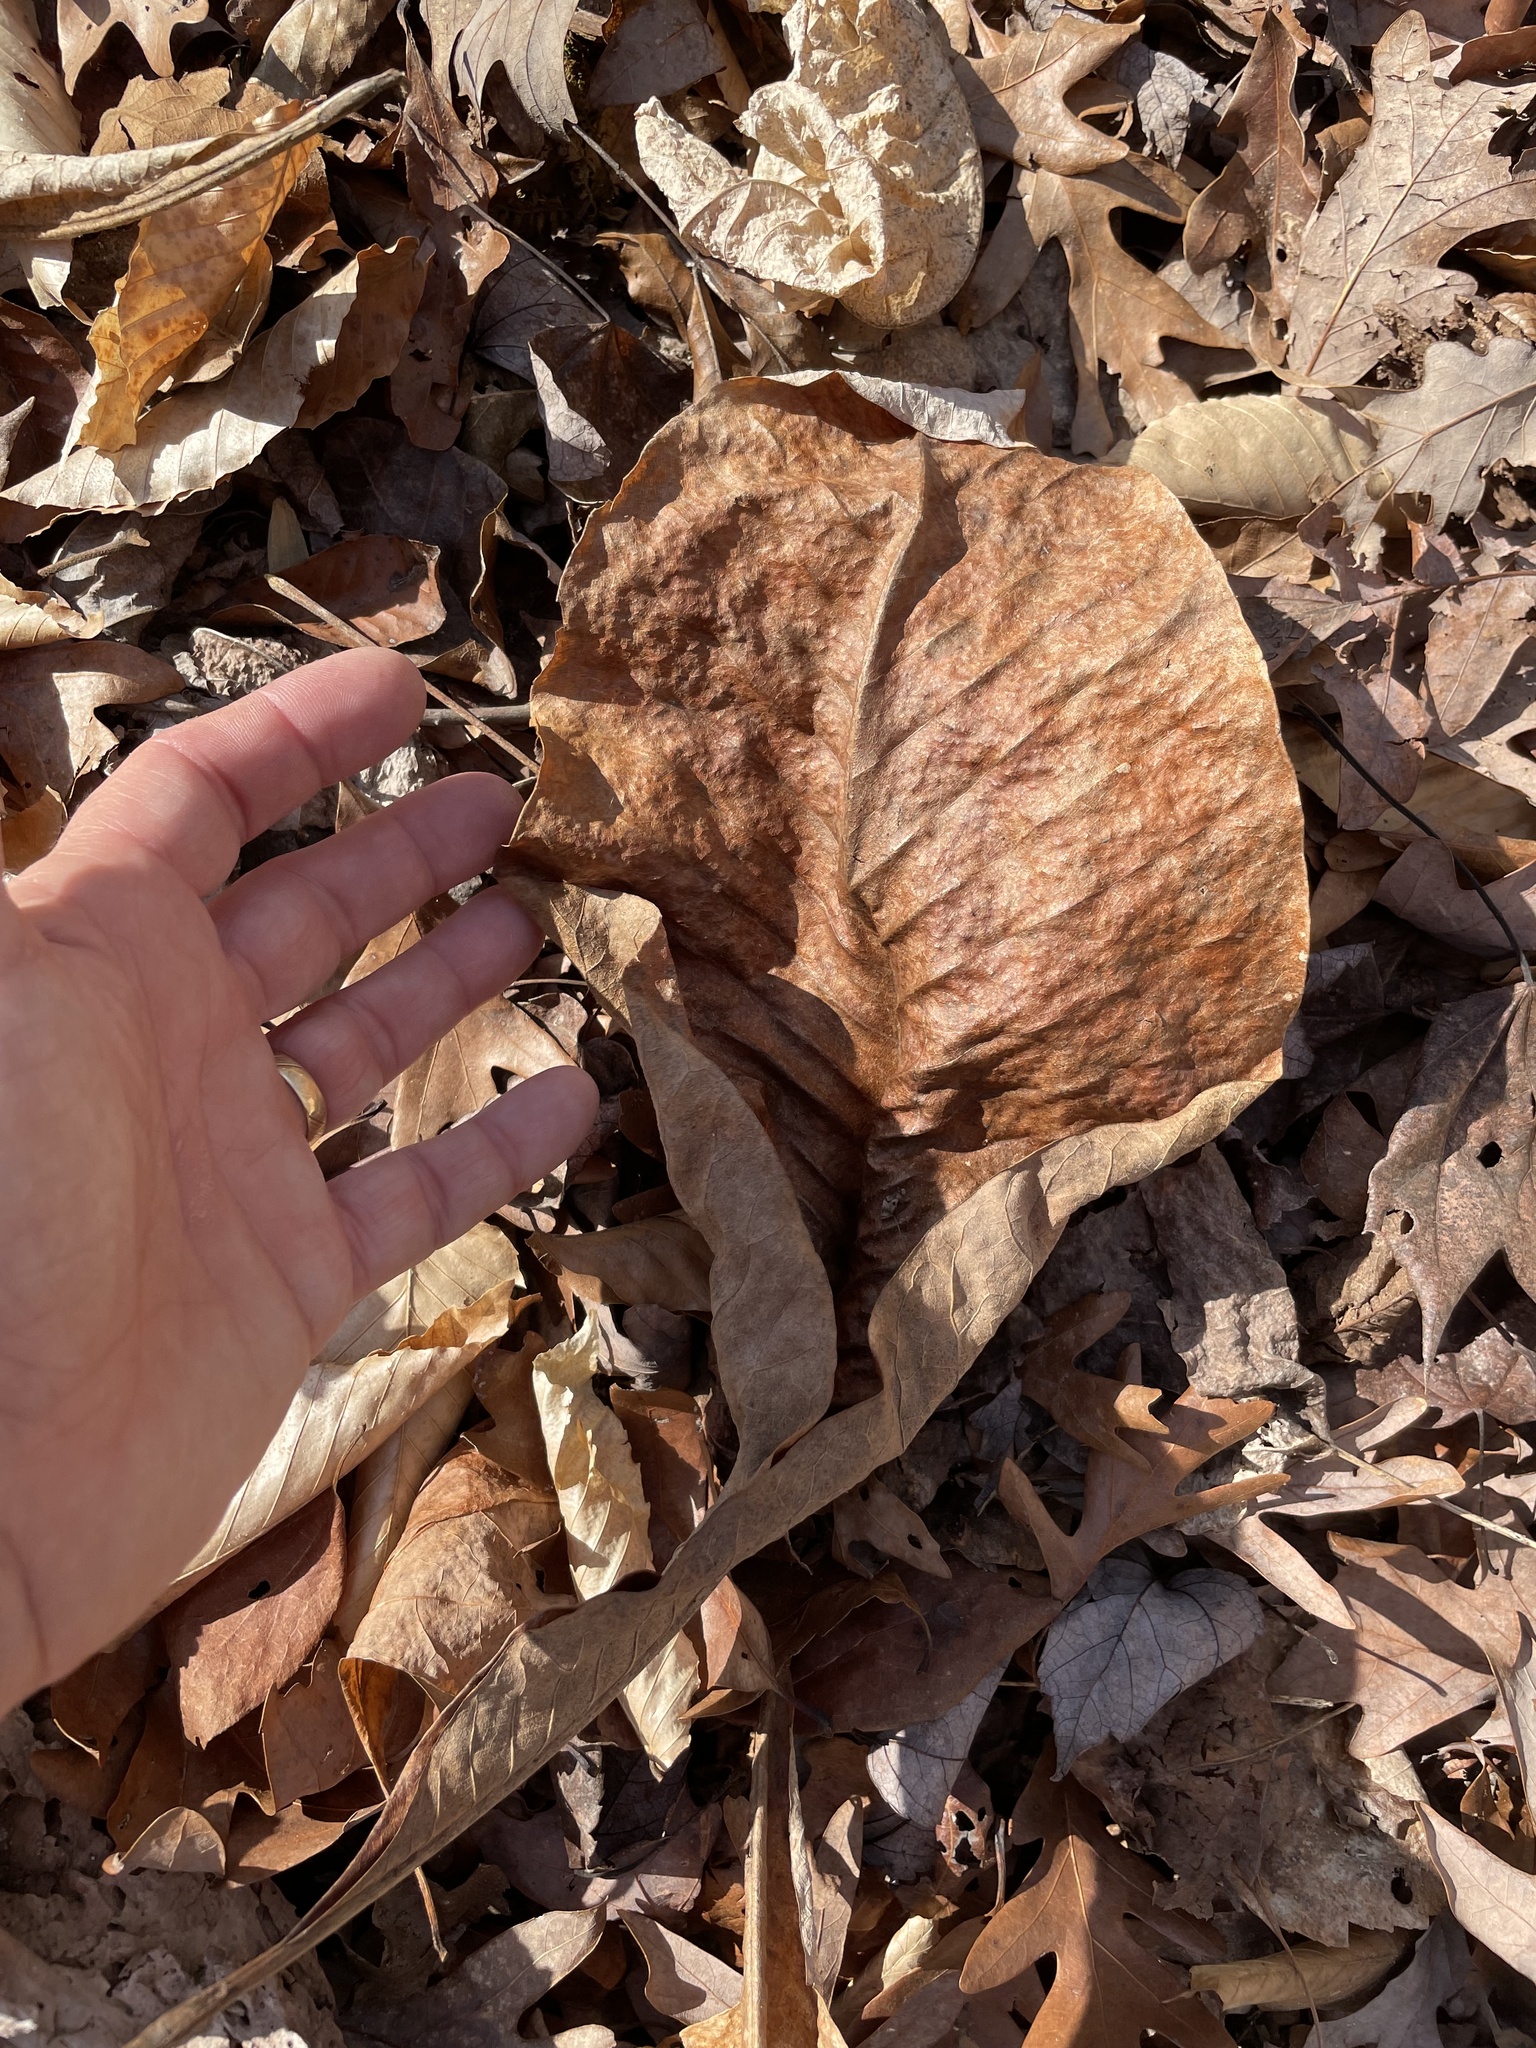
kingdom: Plantae
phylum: Tracheophyta
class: Magnoliopsida
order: Magnoliales
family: Magnoliaceae
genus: Magnolia
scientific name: Magnolia tripetala
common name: Umbrella magnolia
